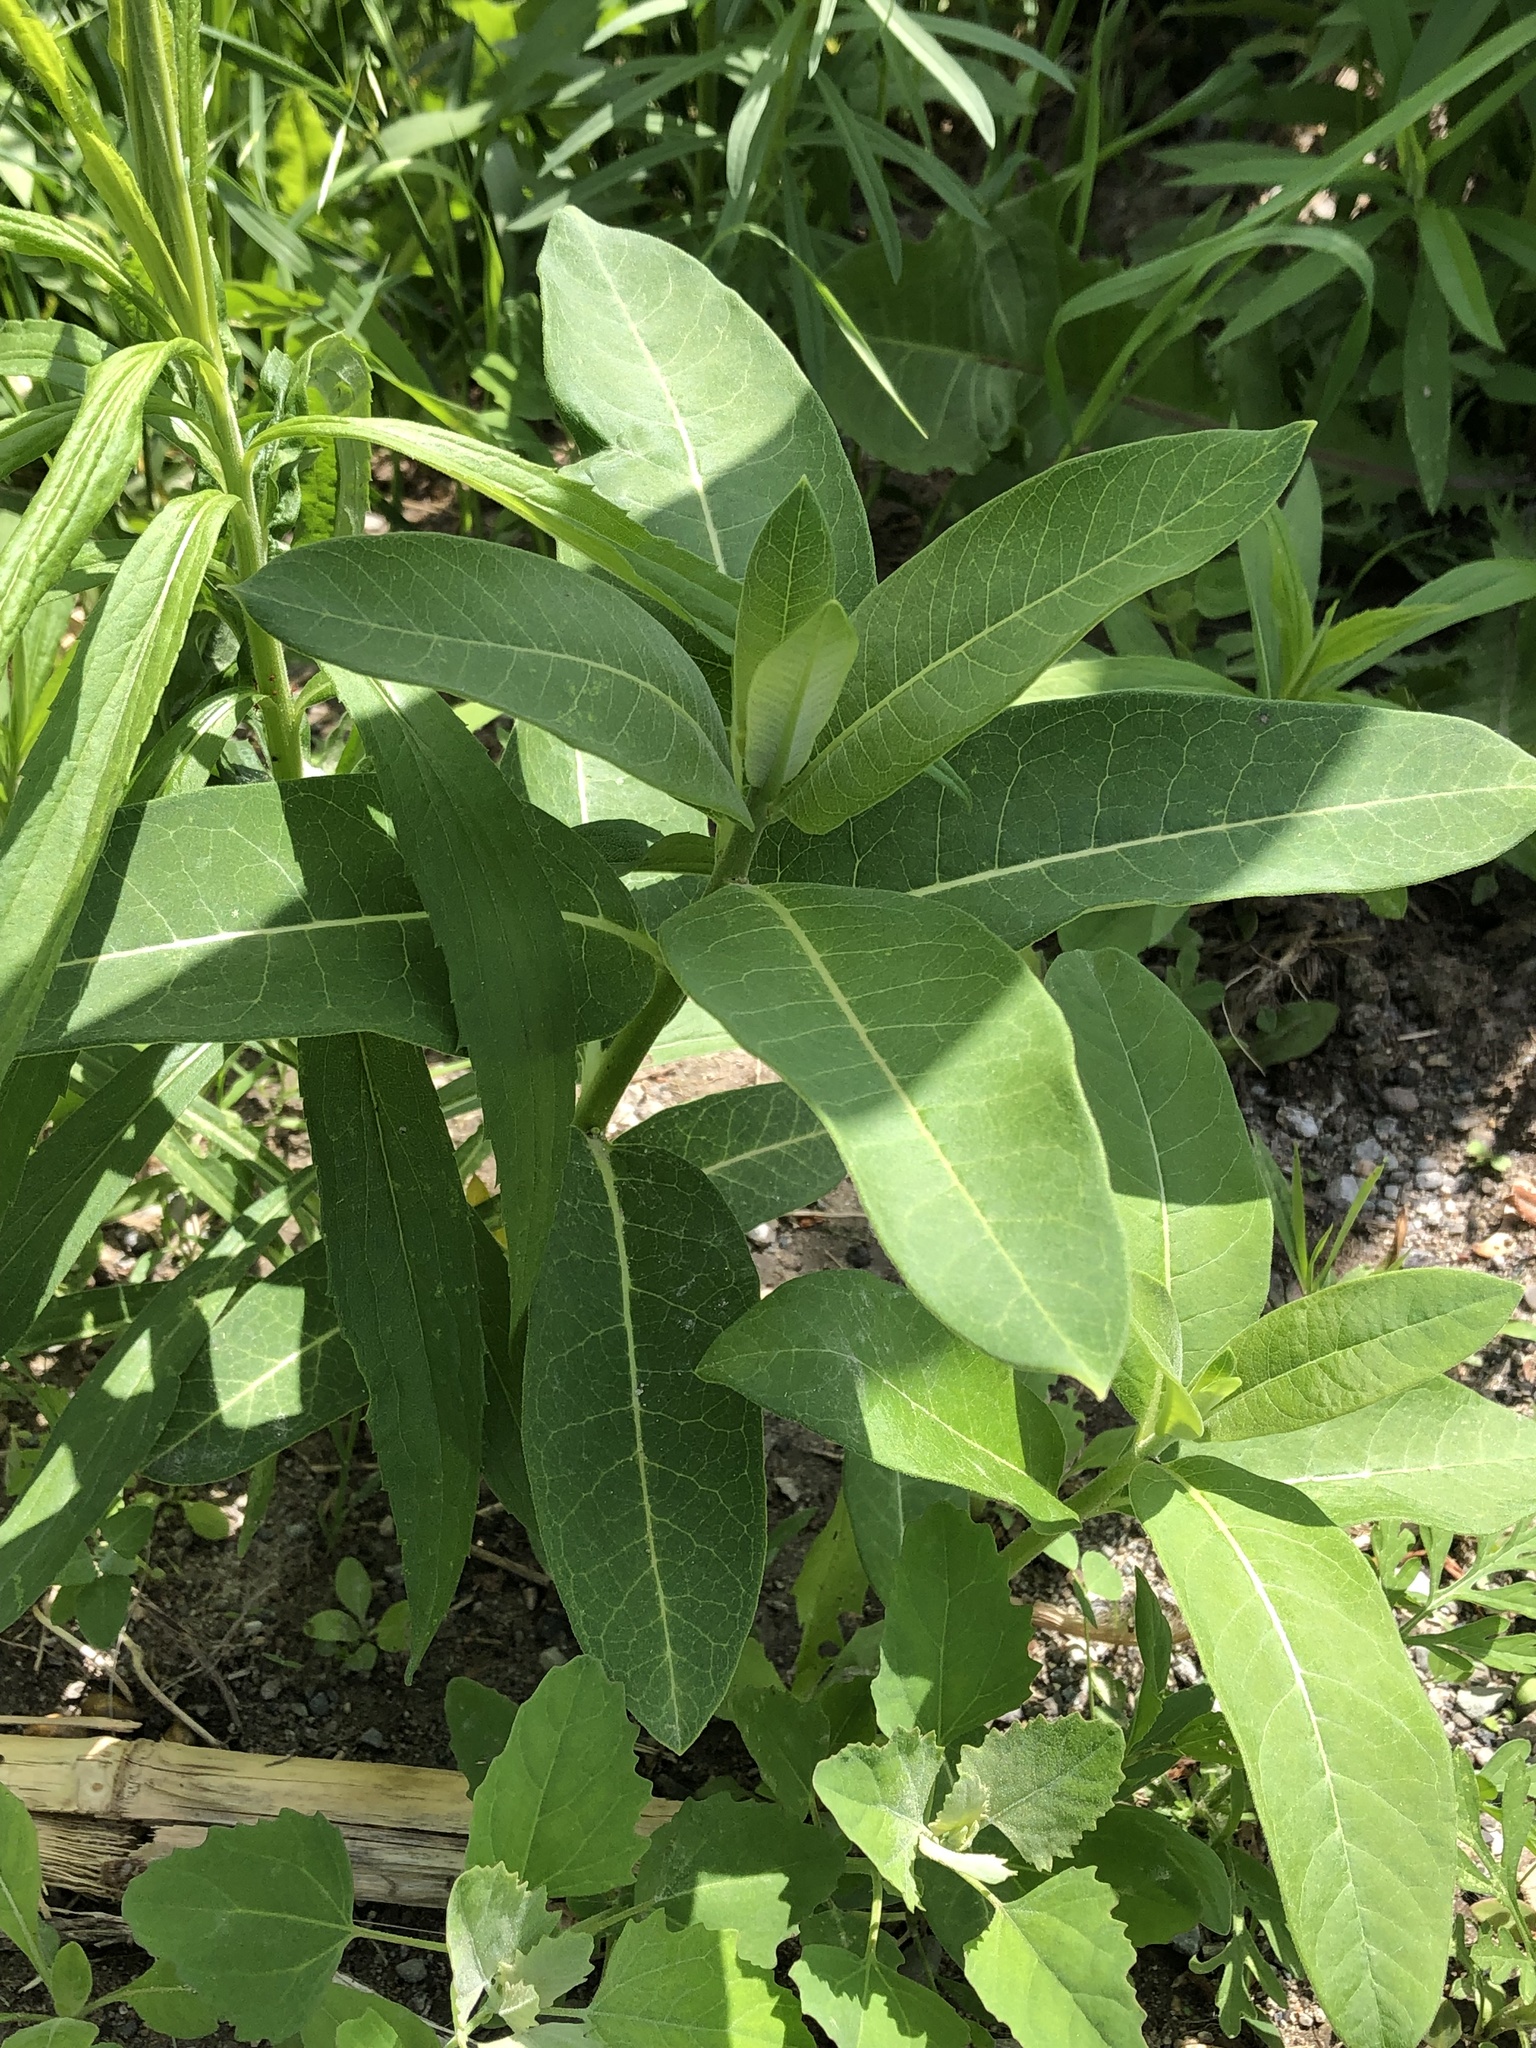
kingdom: Plantae
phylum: Tracheophyta
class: Magnoliopsida
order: Gentianales
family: Apocynaceae
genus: Asclepias
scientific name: Asclepias syriaca
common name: Common milkweed
